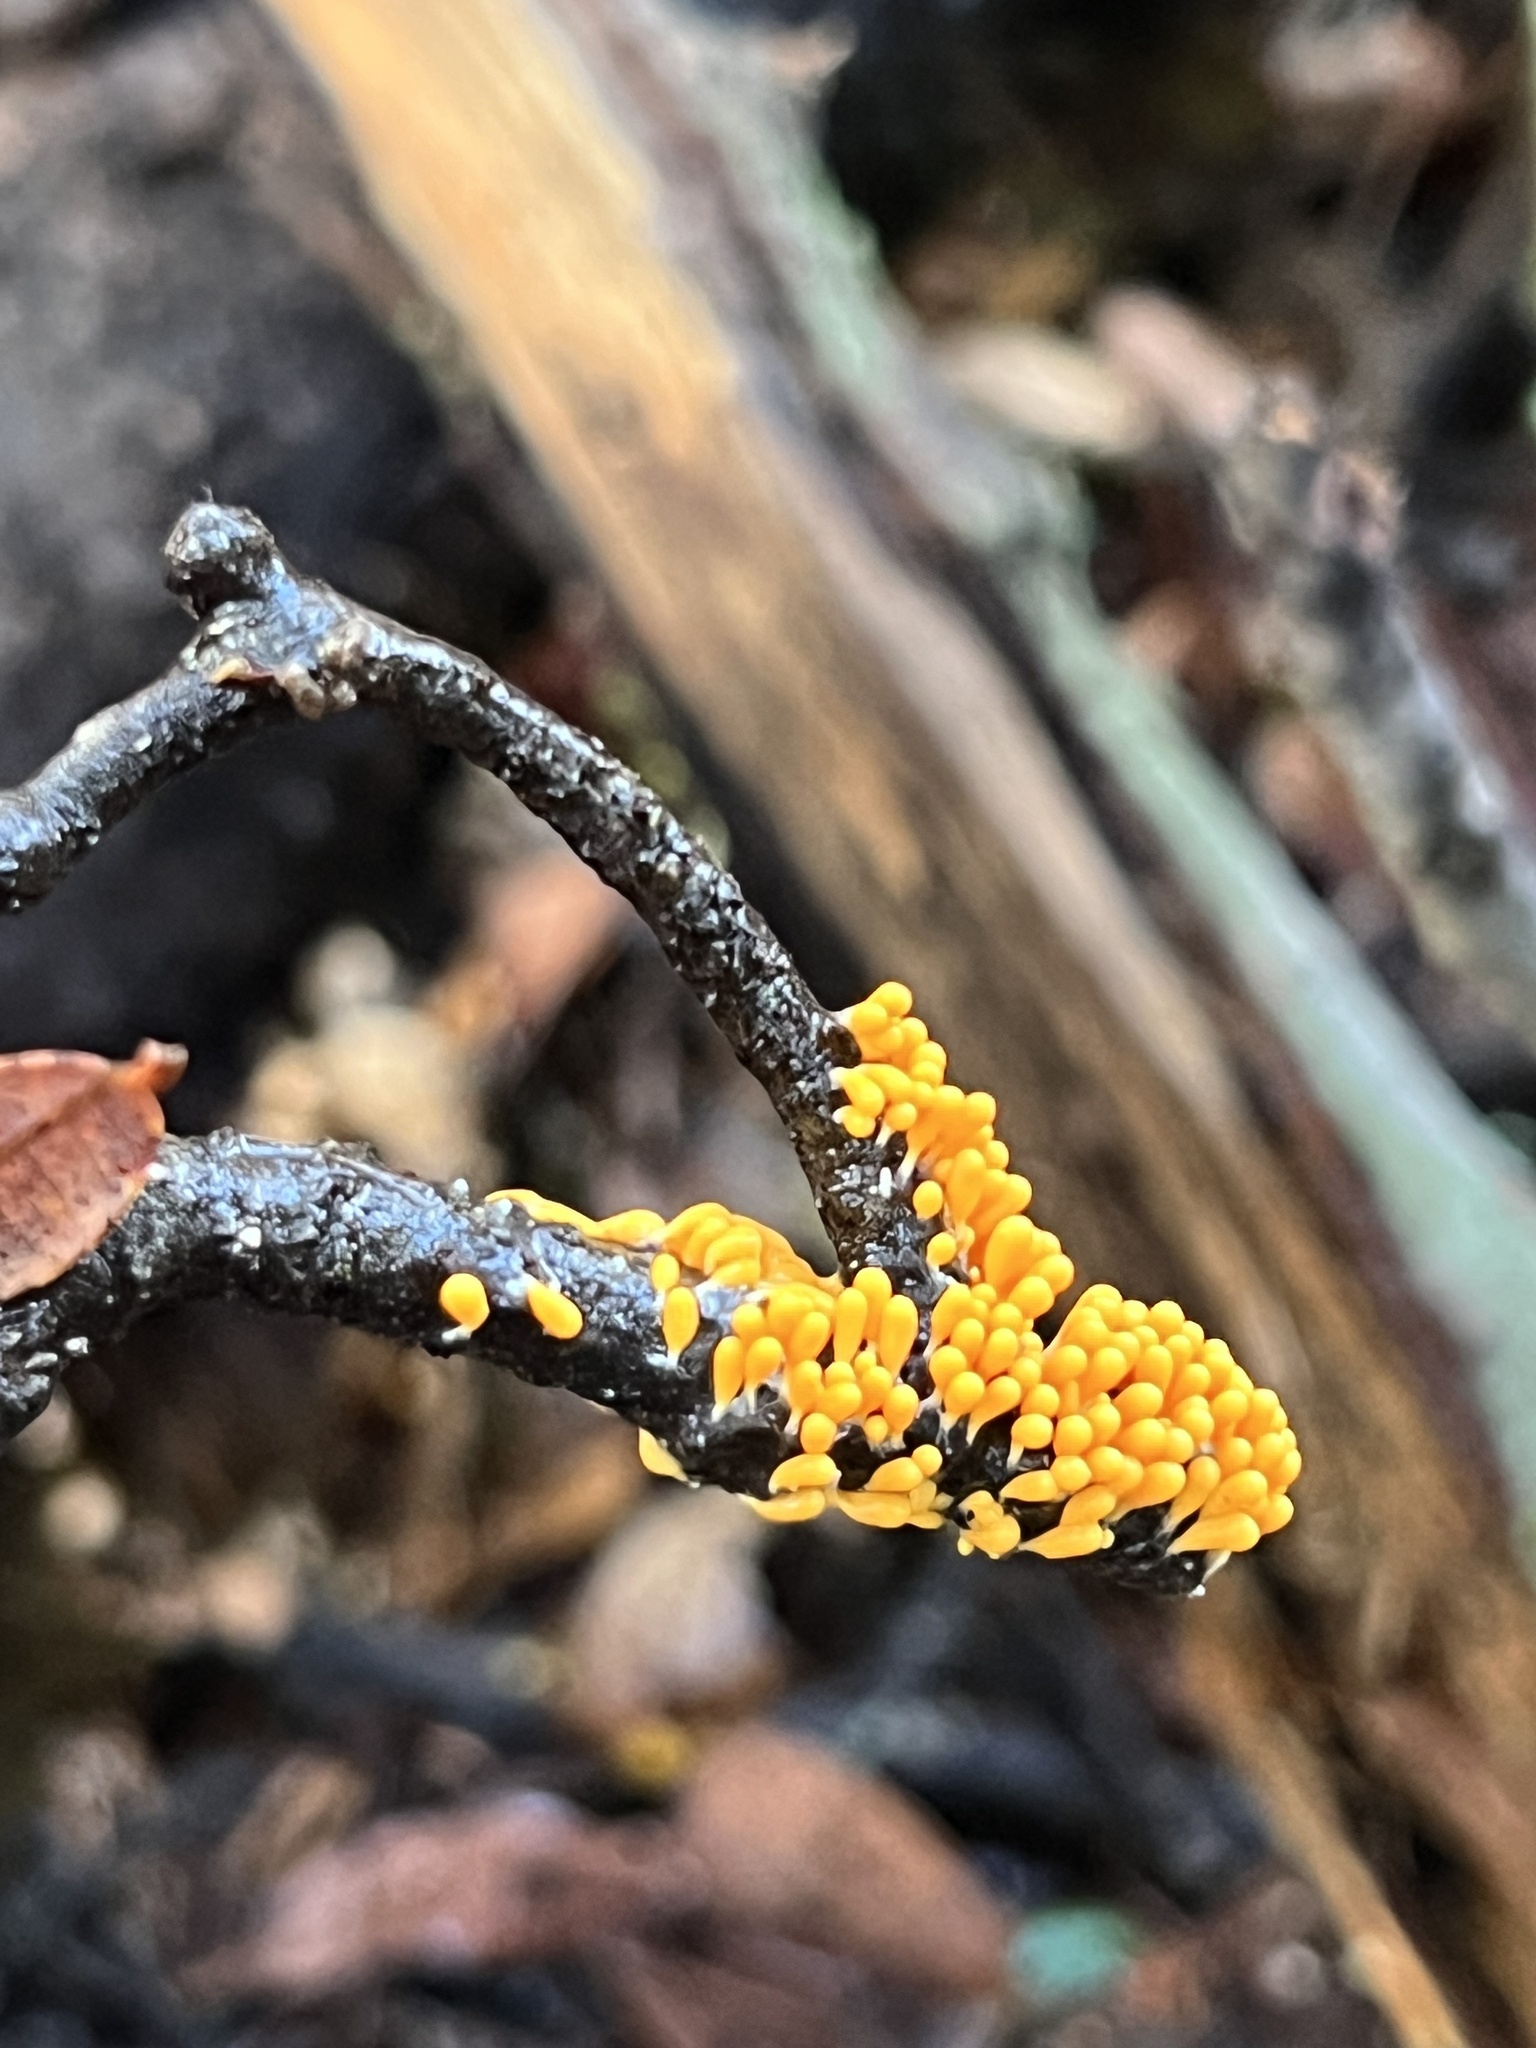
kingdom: Protozoa
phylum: Mycetozoa
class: Myxomycetes
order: Physarales
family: Physaraceae
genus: Leocarpus
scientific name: Leocarpus fragilis
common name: Insect-egg slime
